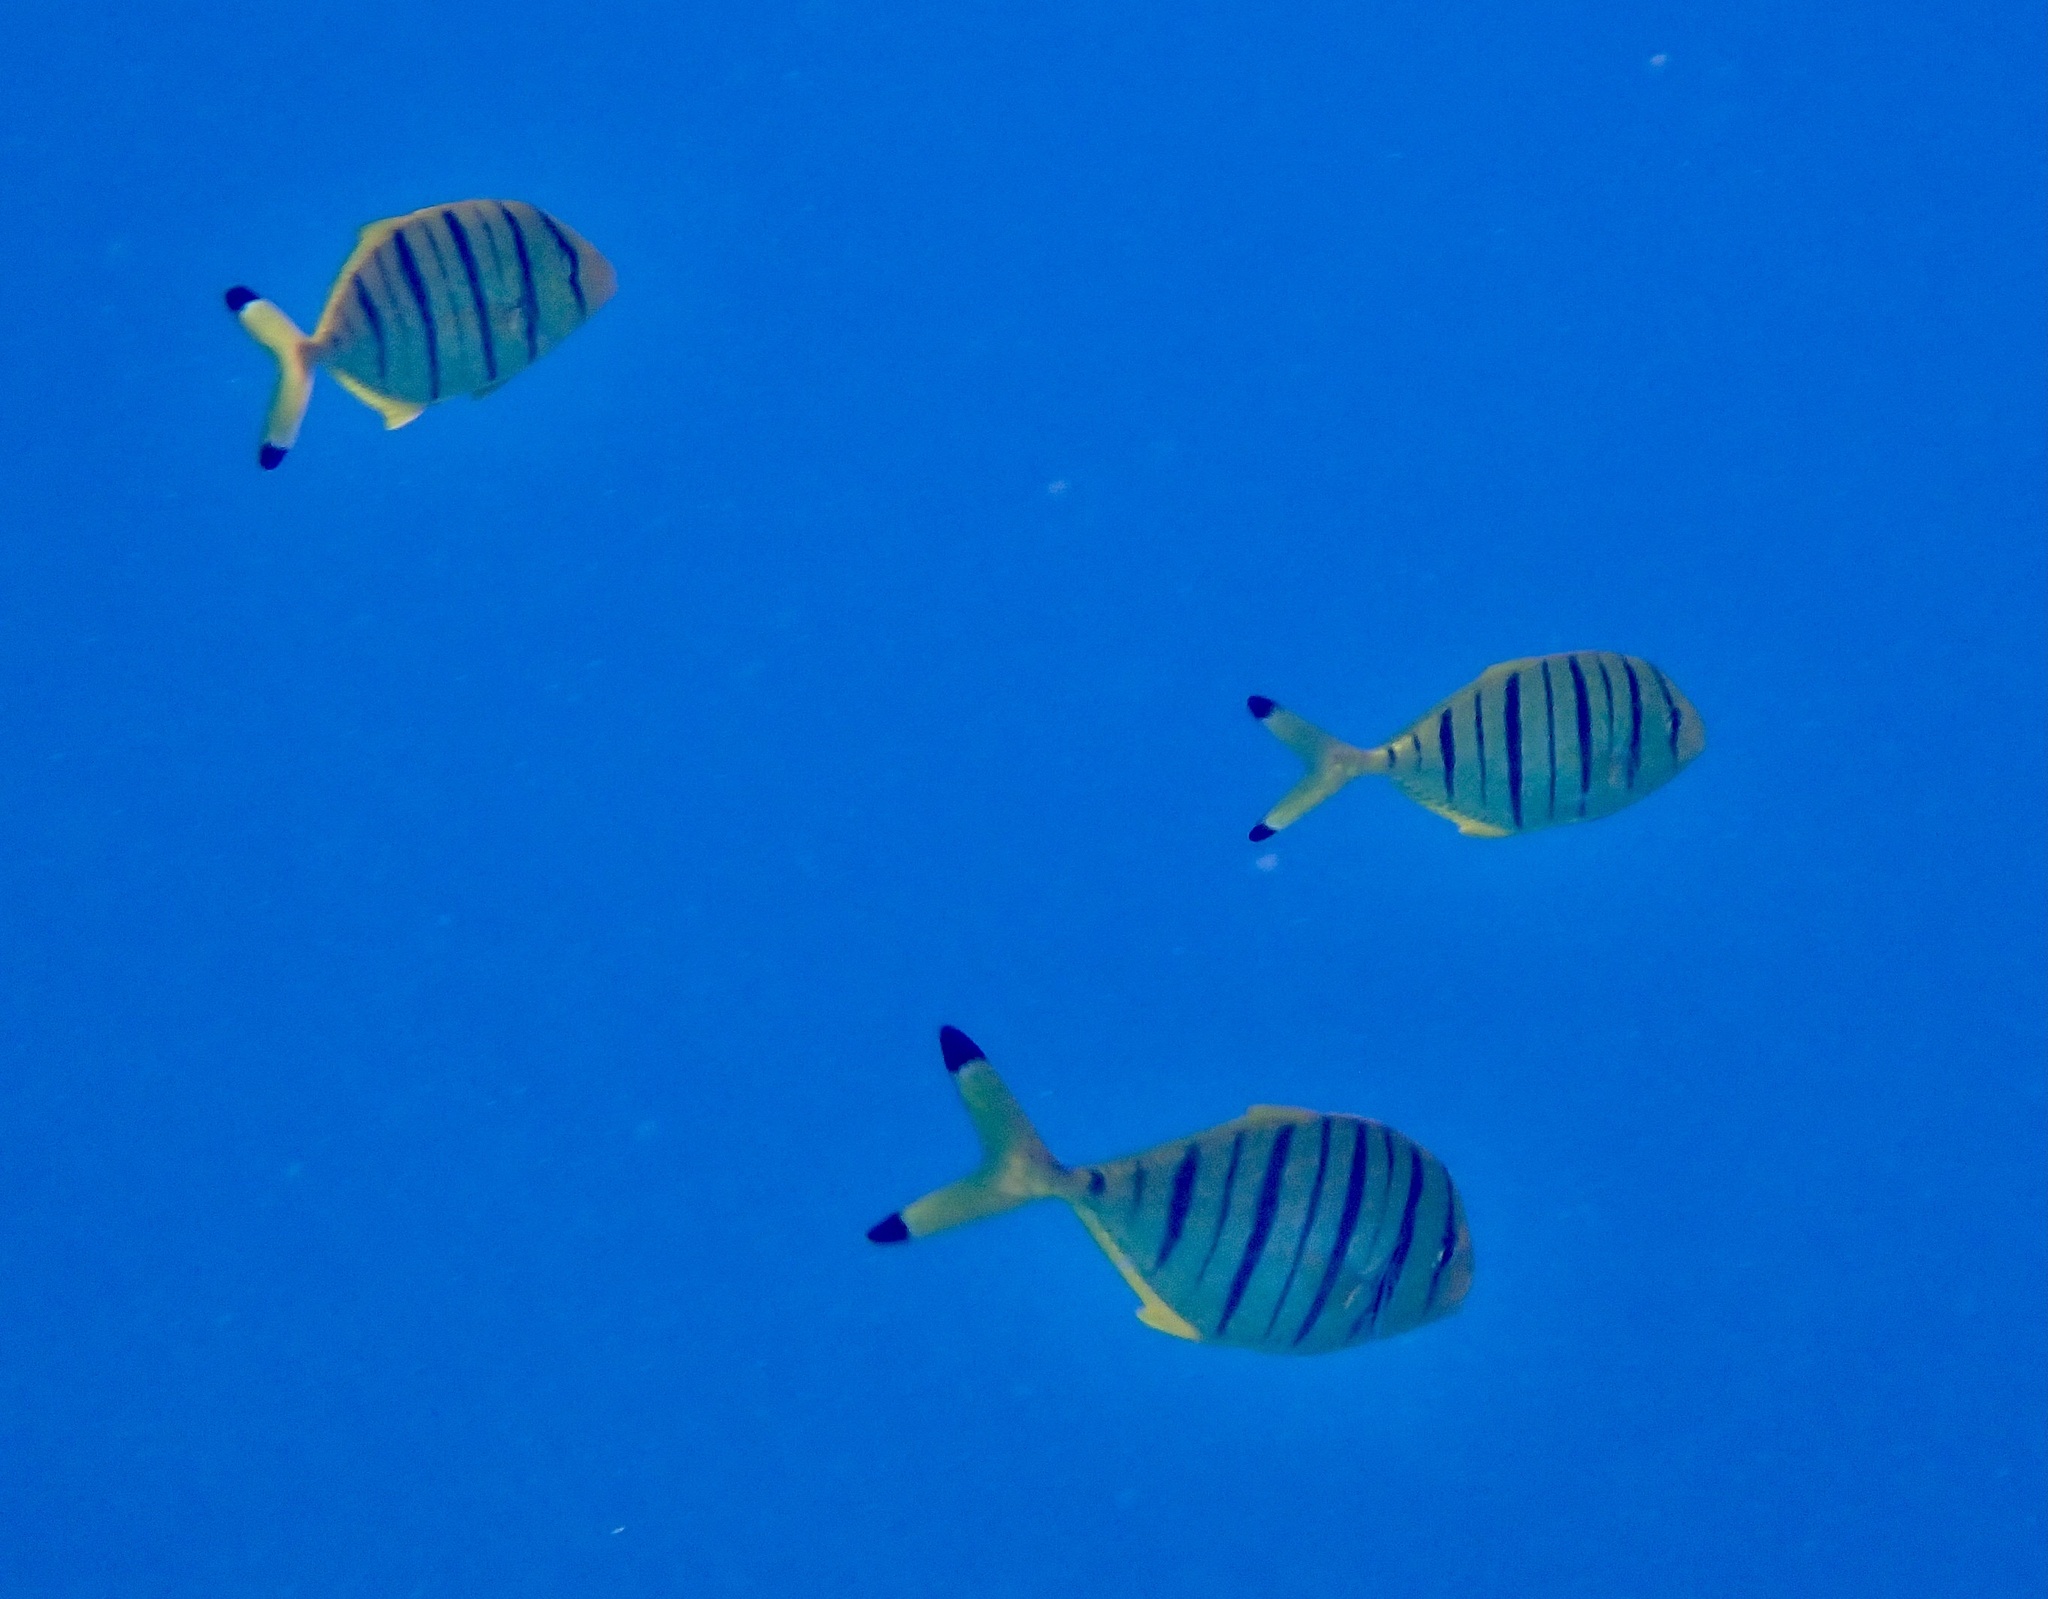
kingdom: Animalia
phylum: Chordata
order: Perciformes
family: Carangidae
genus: Gnathanodon
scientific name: Gnathanodon speciosus
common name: Golden toothless trevally
